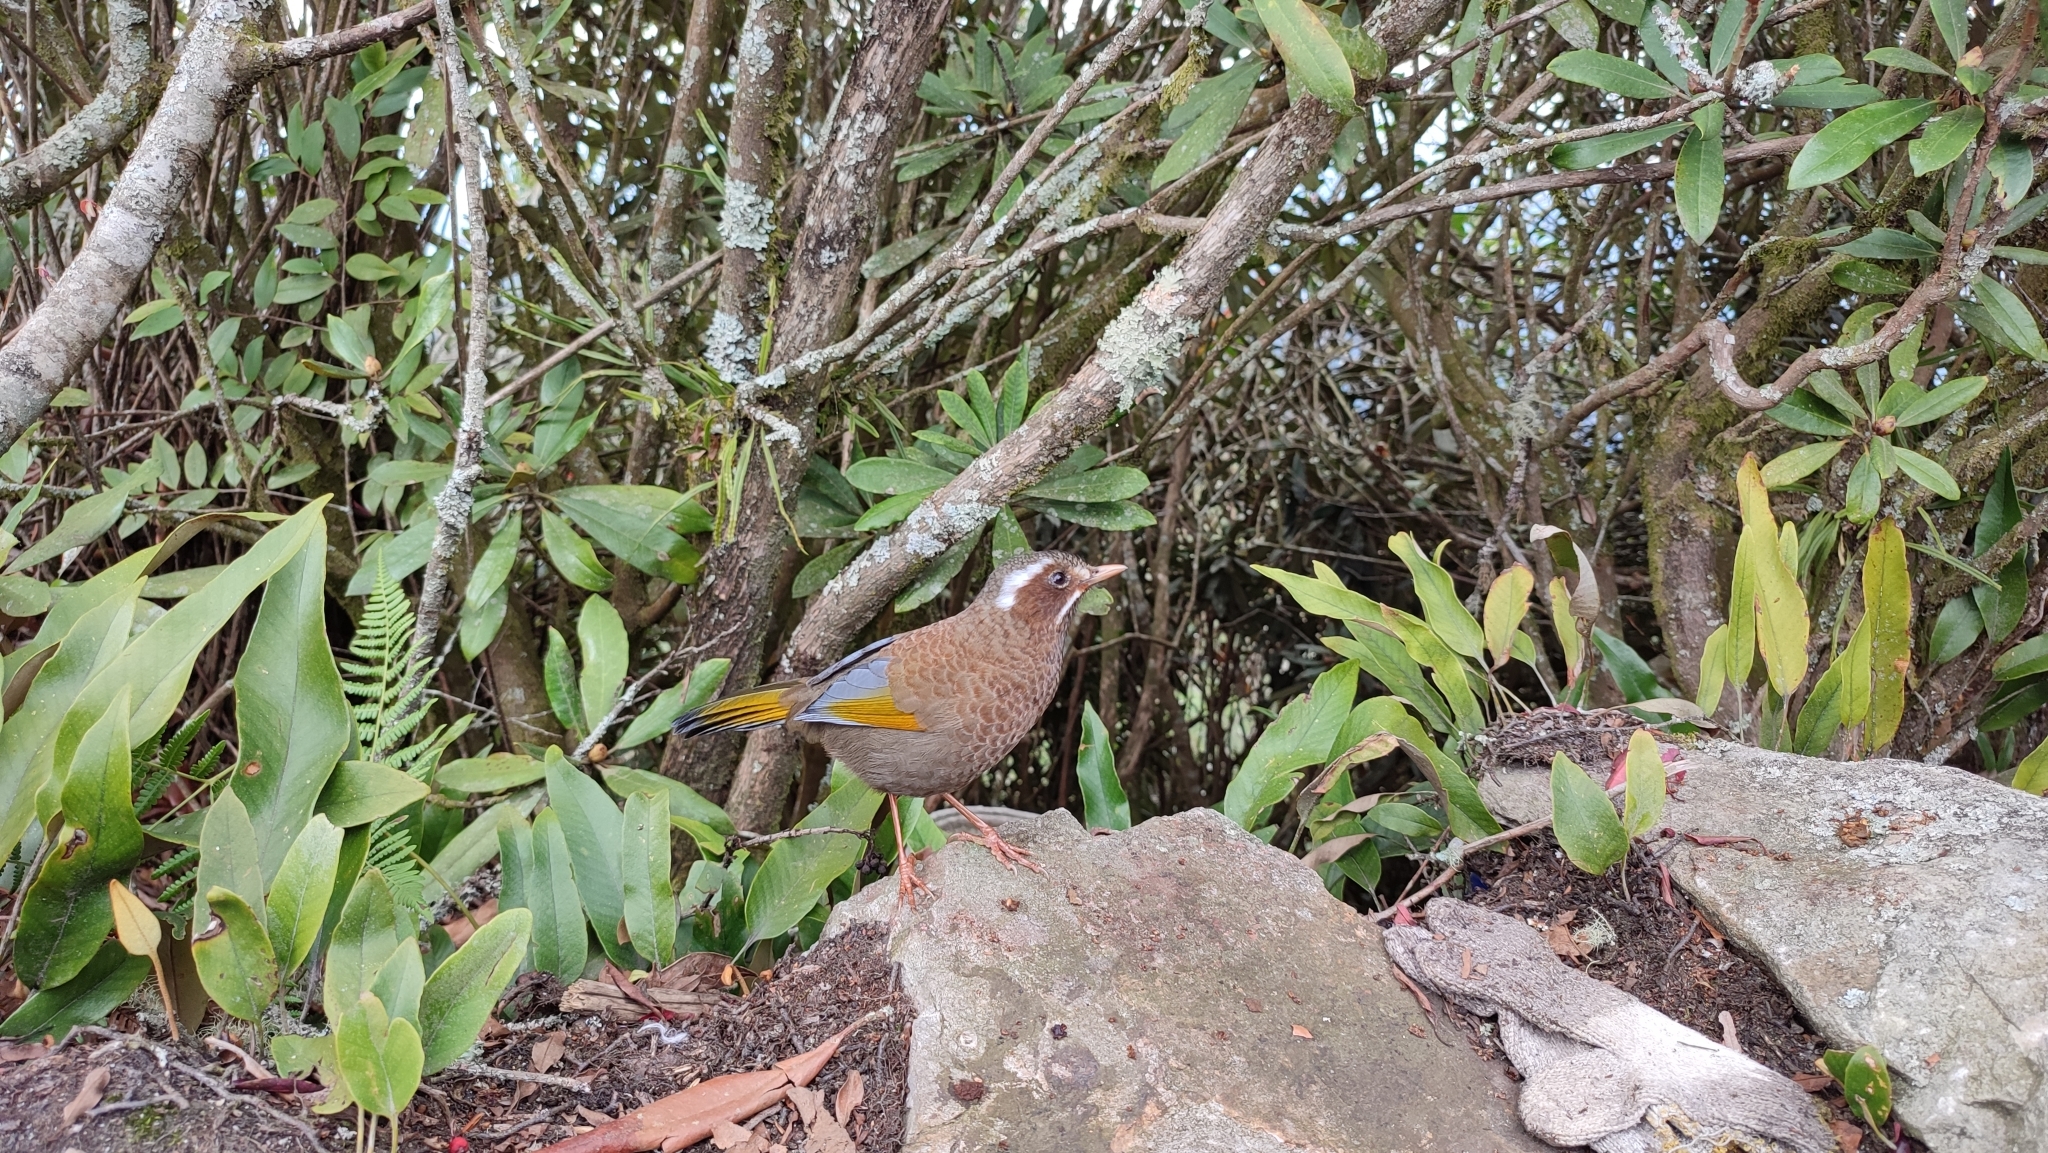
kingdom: Animalia
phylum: Chordata
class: Aves
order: Passeriformes
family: Leiothrichidae
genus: Trochalopteron
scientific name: Trochalopteron morrisonianum
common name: White-whiskered laughingthrush
